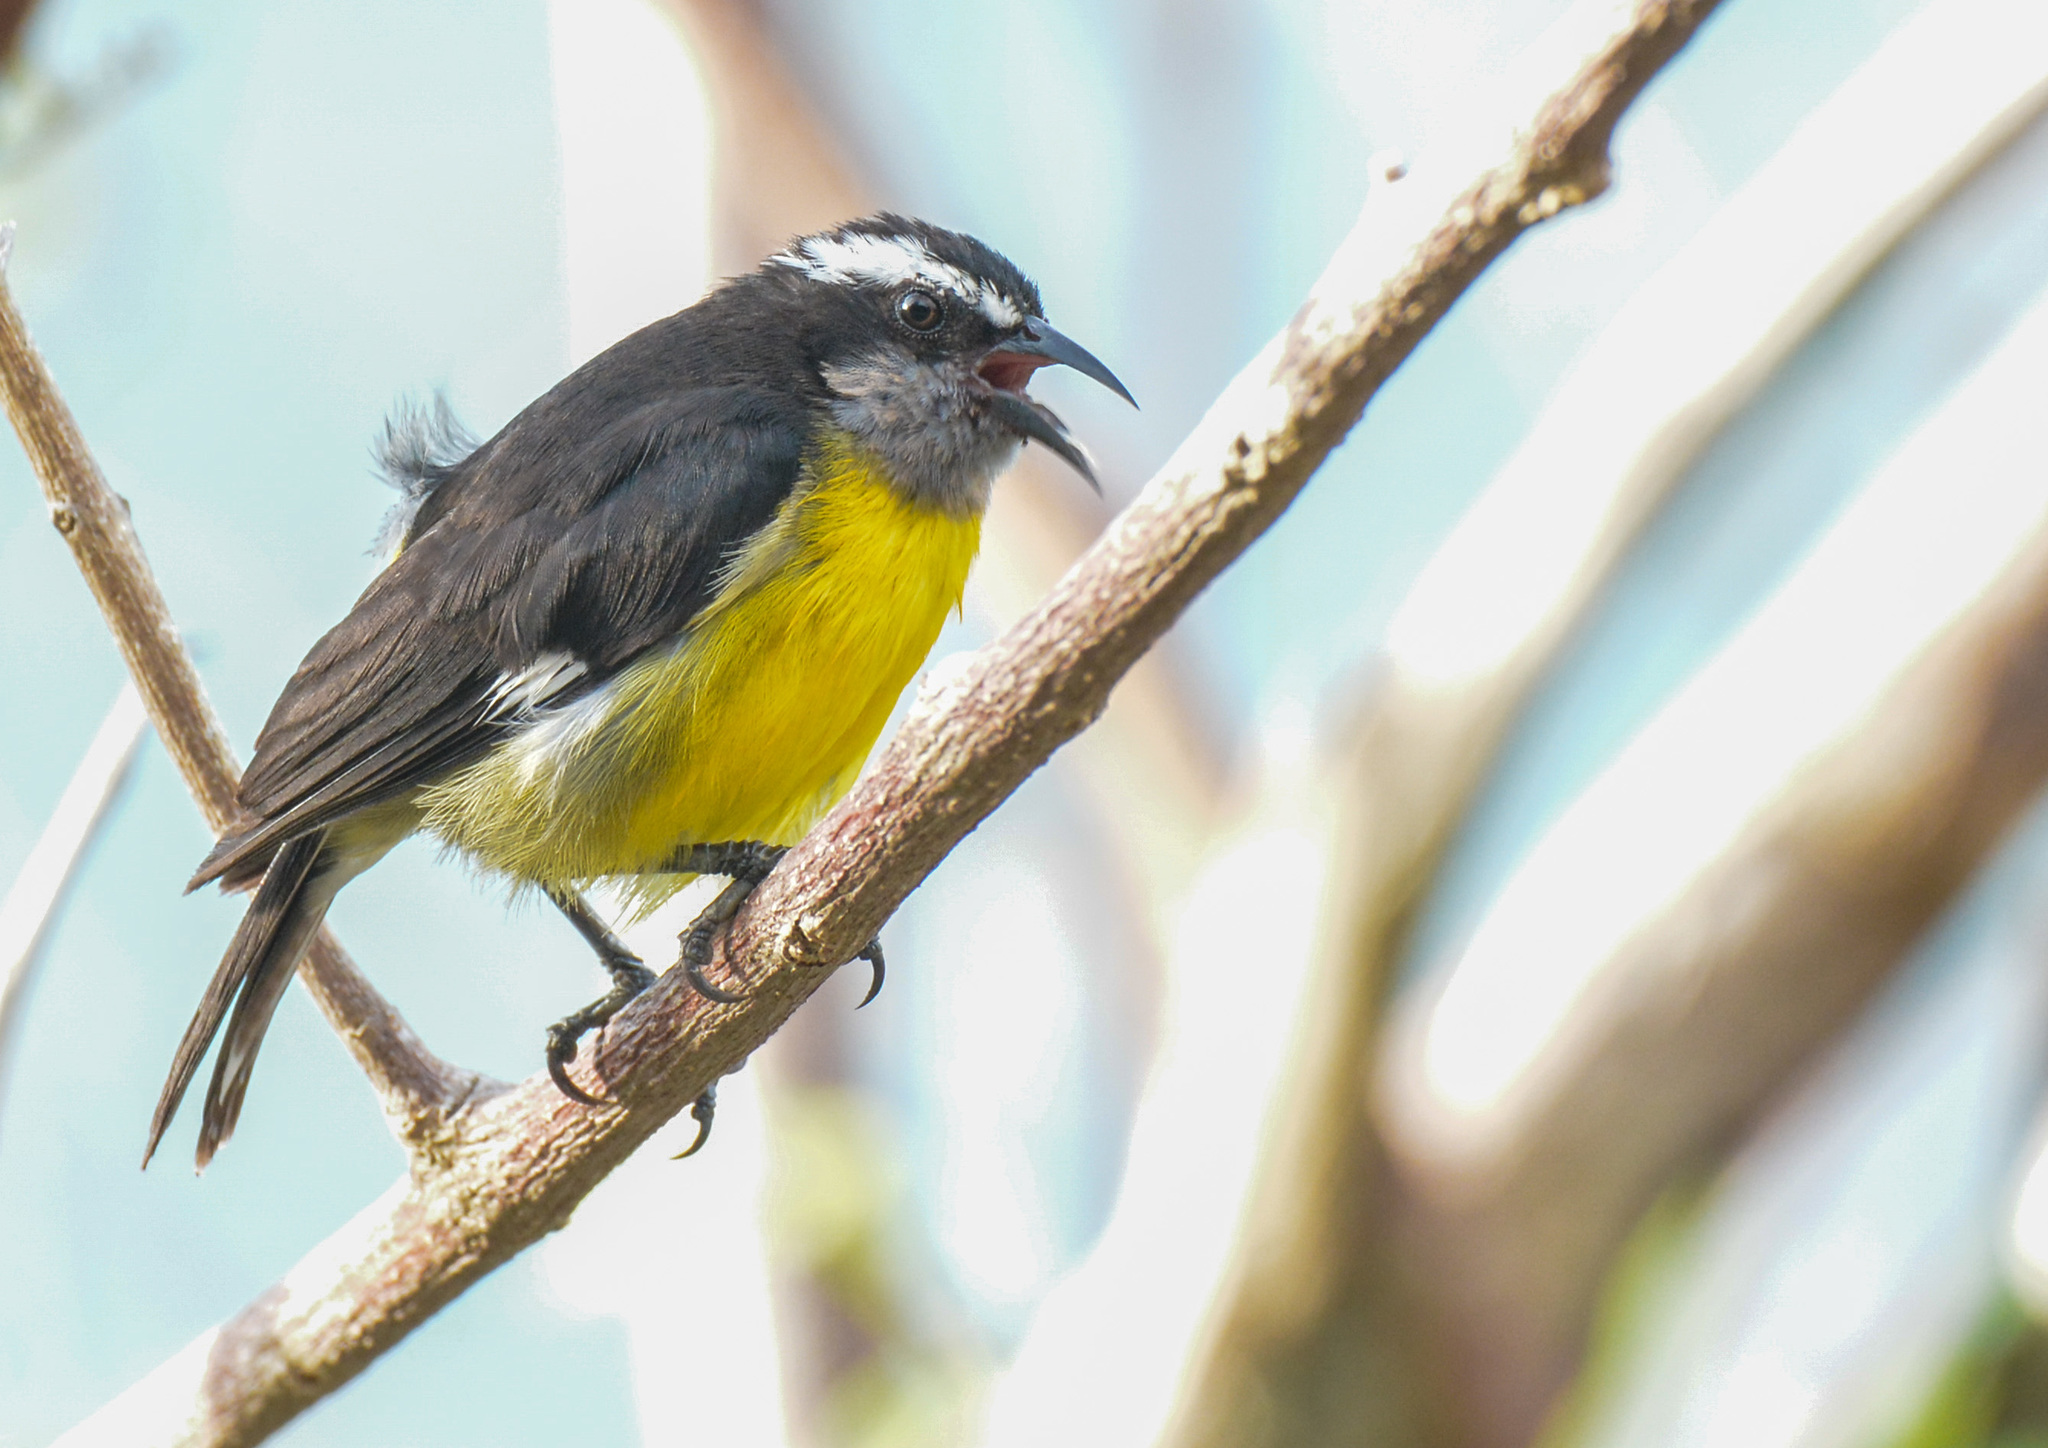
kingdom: Animalia
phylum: Chordata
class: Aves
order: Passeriformes
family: Thraupidae
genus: Coereba
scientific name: Coereba flaveola
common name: Bananaquit
